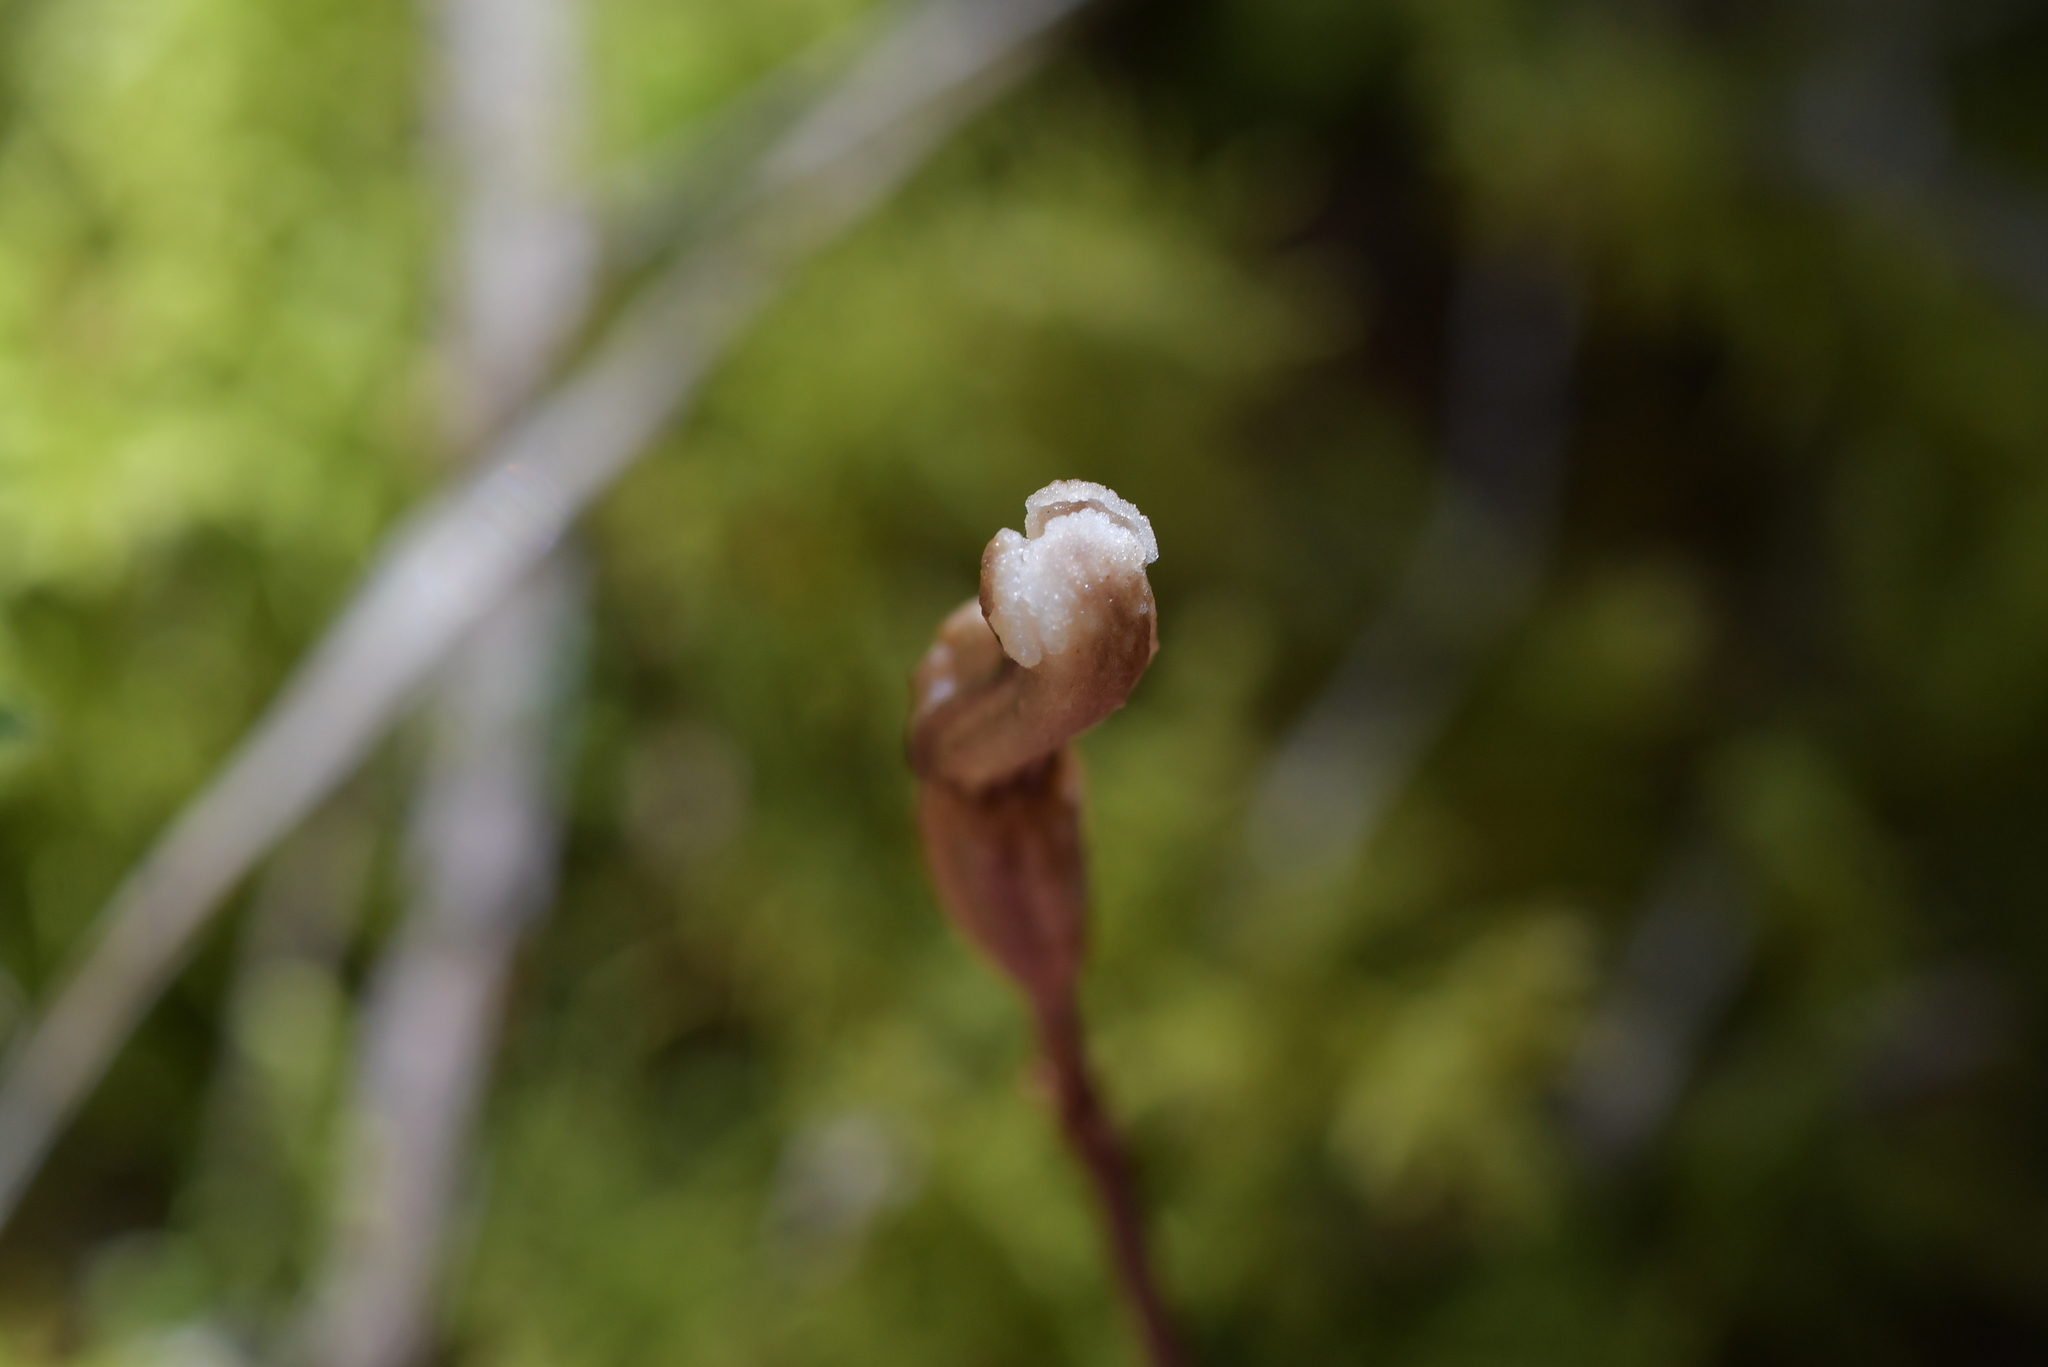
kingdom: Plantae
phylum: Tracheophyta
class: Liliopsida
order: Asparagales
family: Orchidaceae
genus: Gastrodia
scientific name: Gastrodia minor
